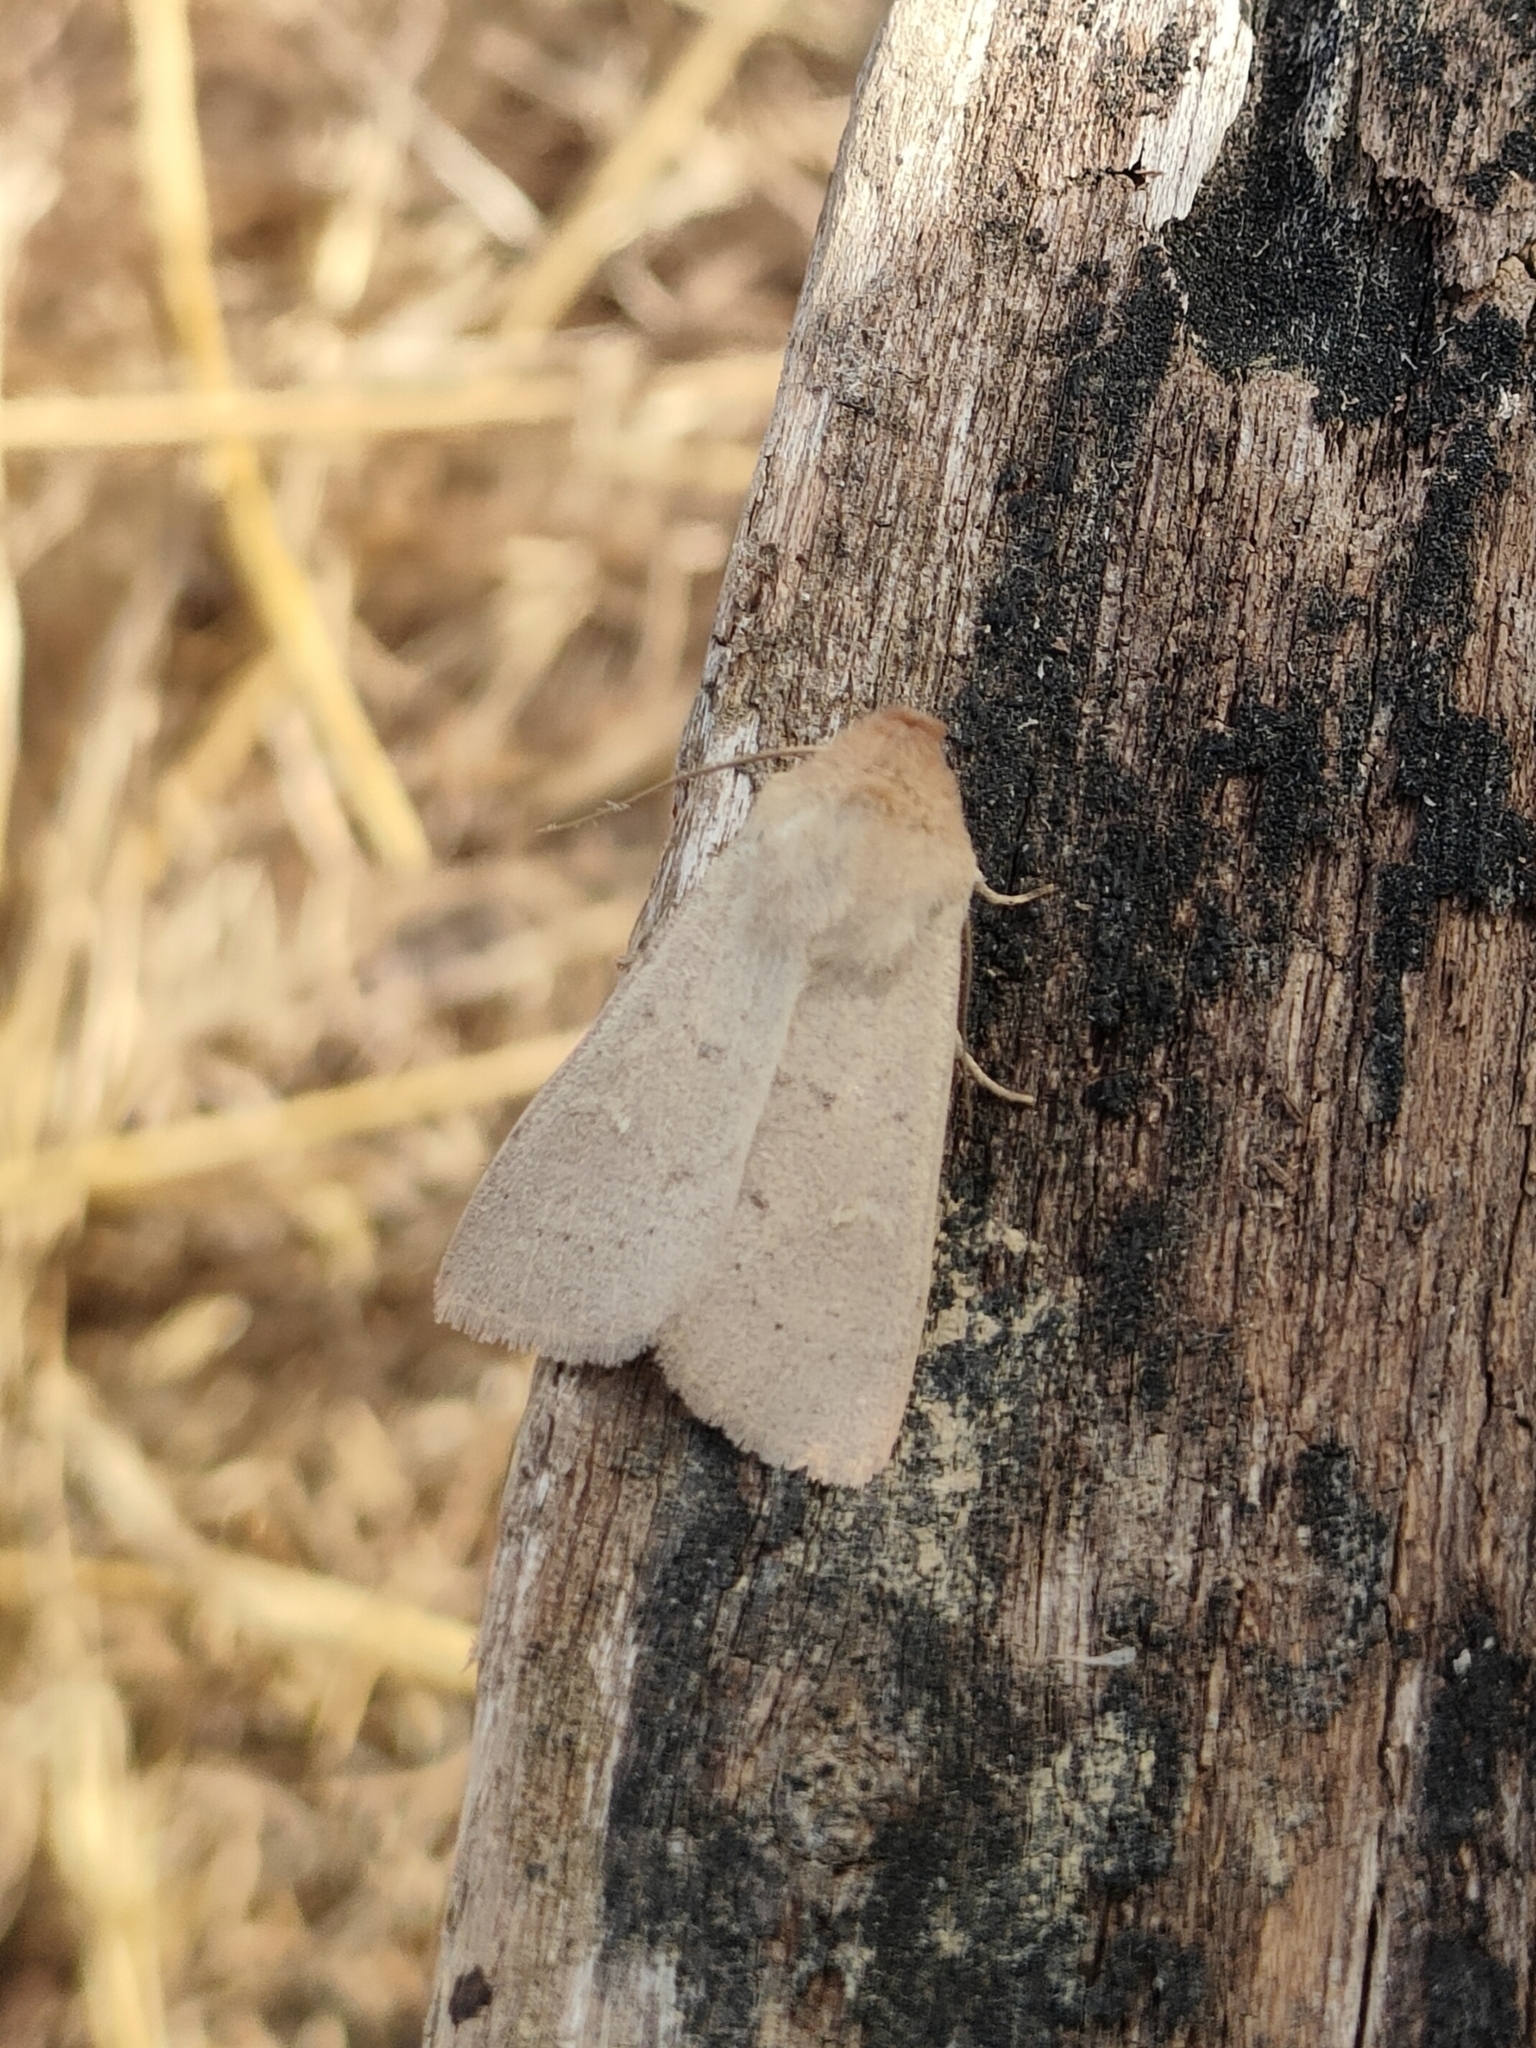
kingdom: Animalia
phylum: Arthropoda
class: Insecta
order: Lepidoptera
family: Noctuidae
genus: Mythimna
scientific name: Mythimna ferrago
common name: Clay
